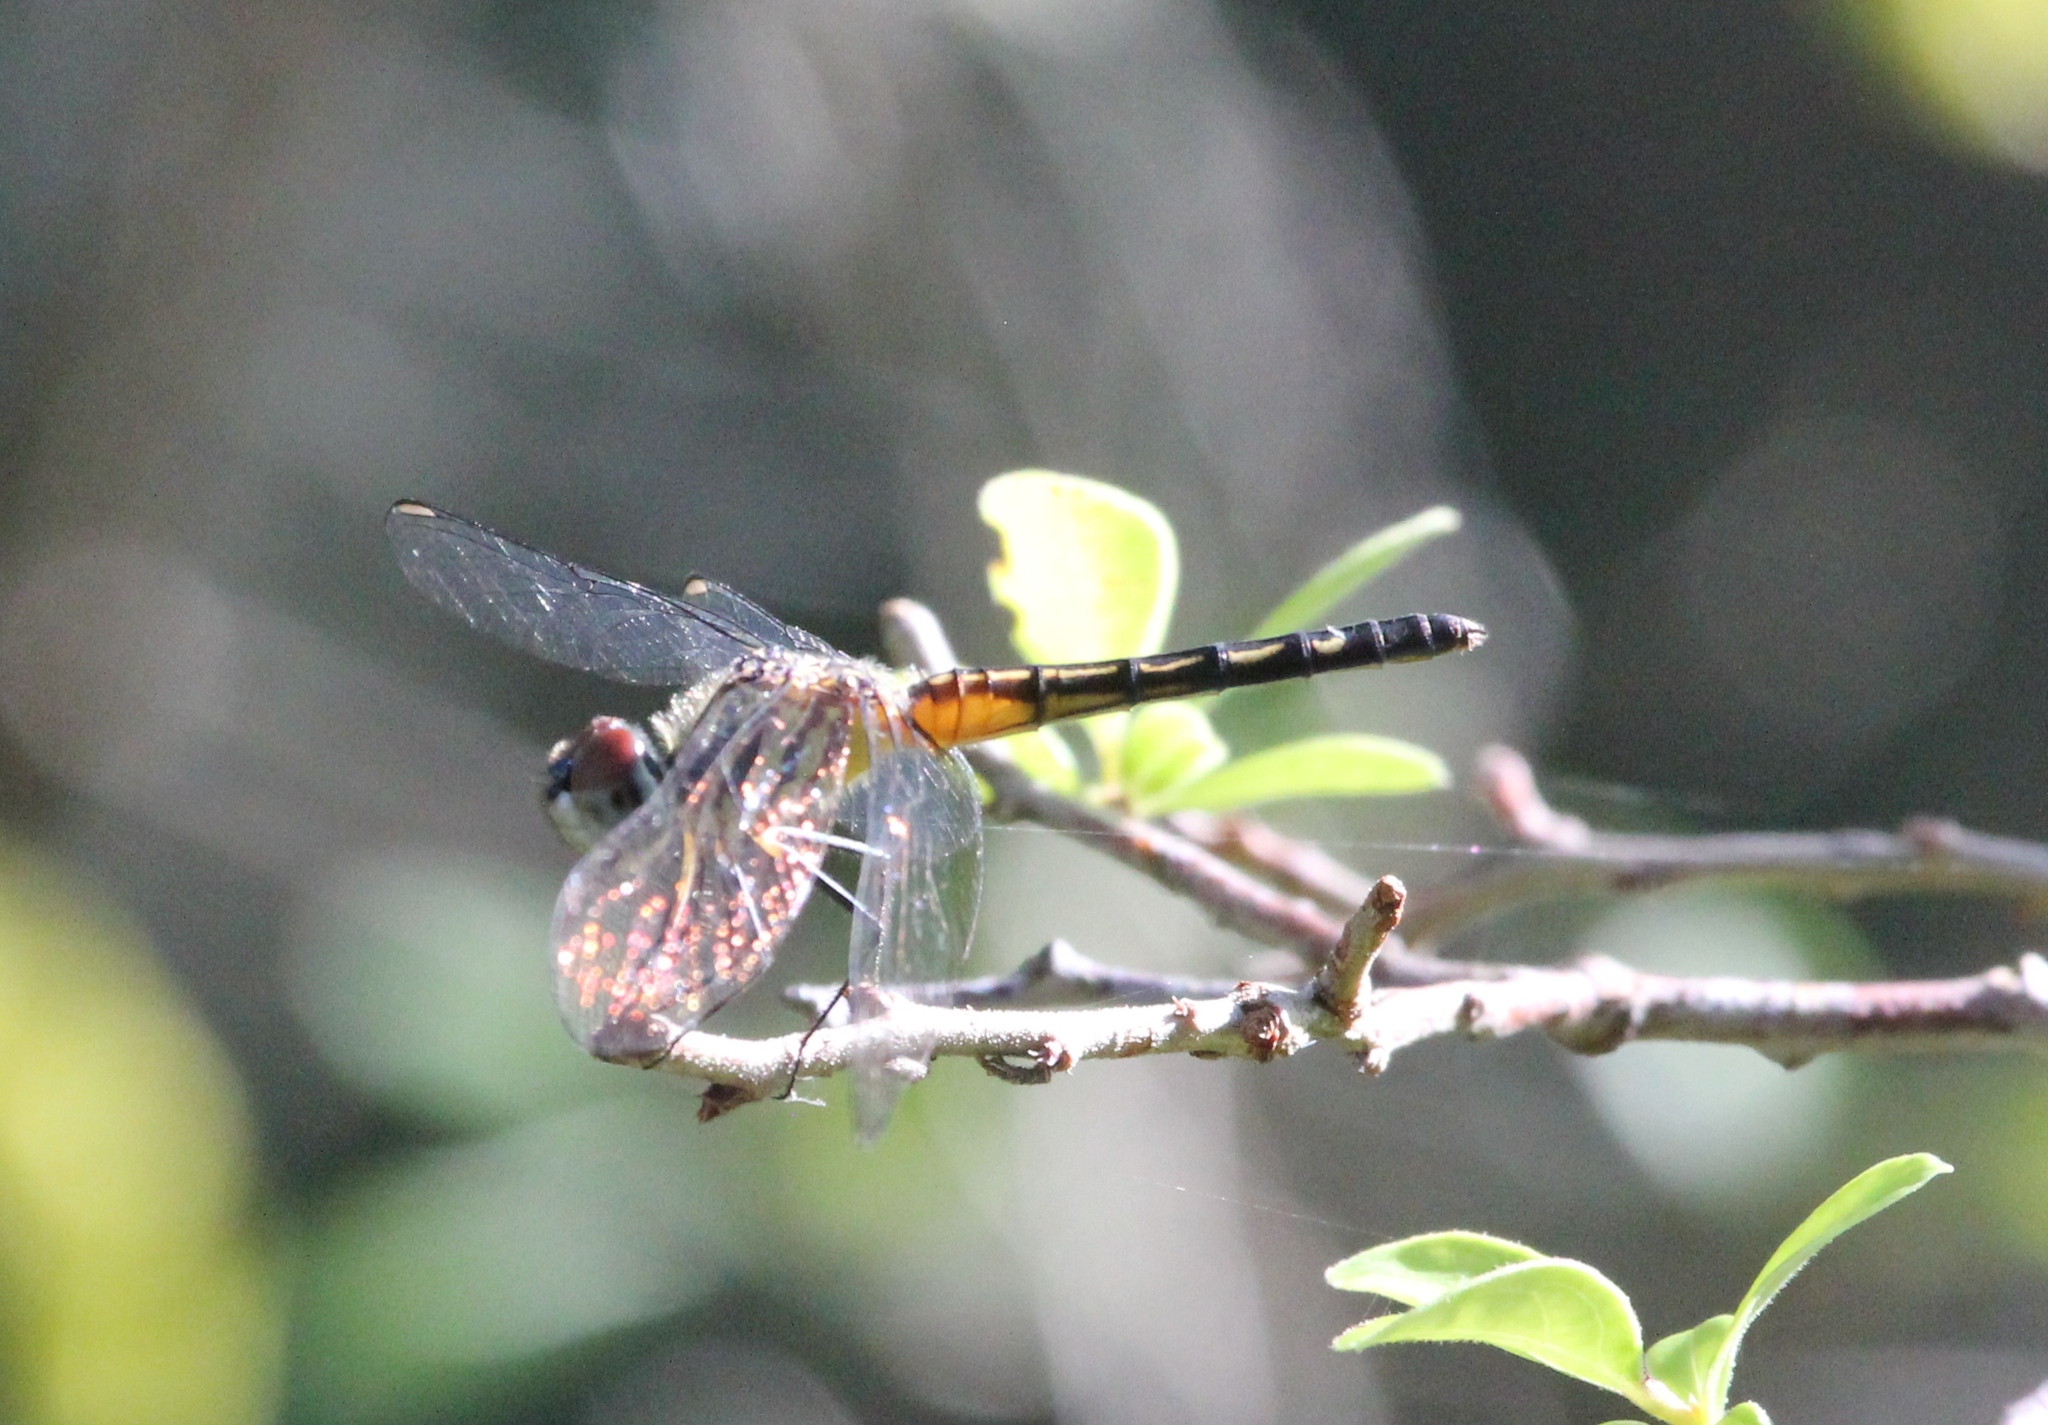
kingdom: Animalia
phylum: Arthropoda
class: Insecta
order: Odonata
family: Libellulidae
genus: Pachydiplax
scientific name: Pachydiplax longipennis
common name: Blue dasher
